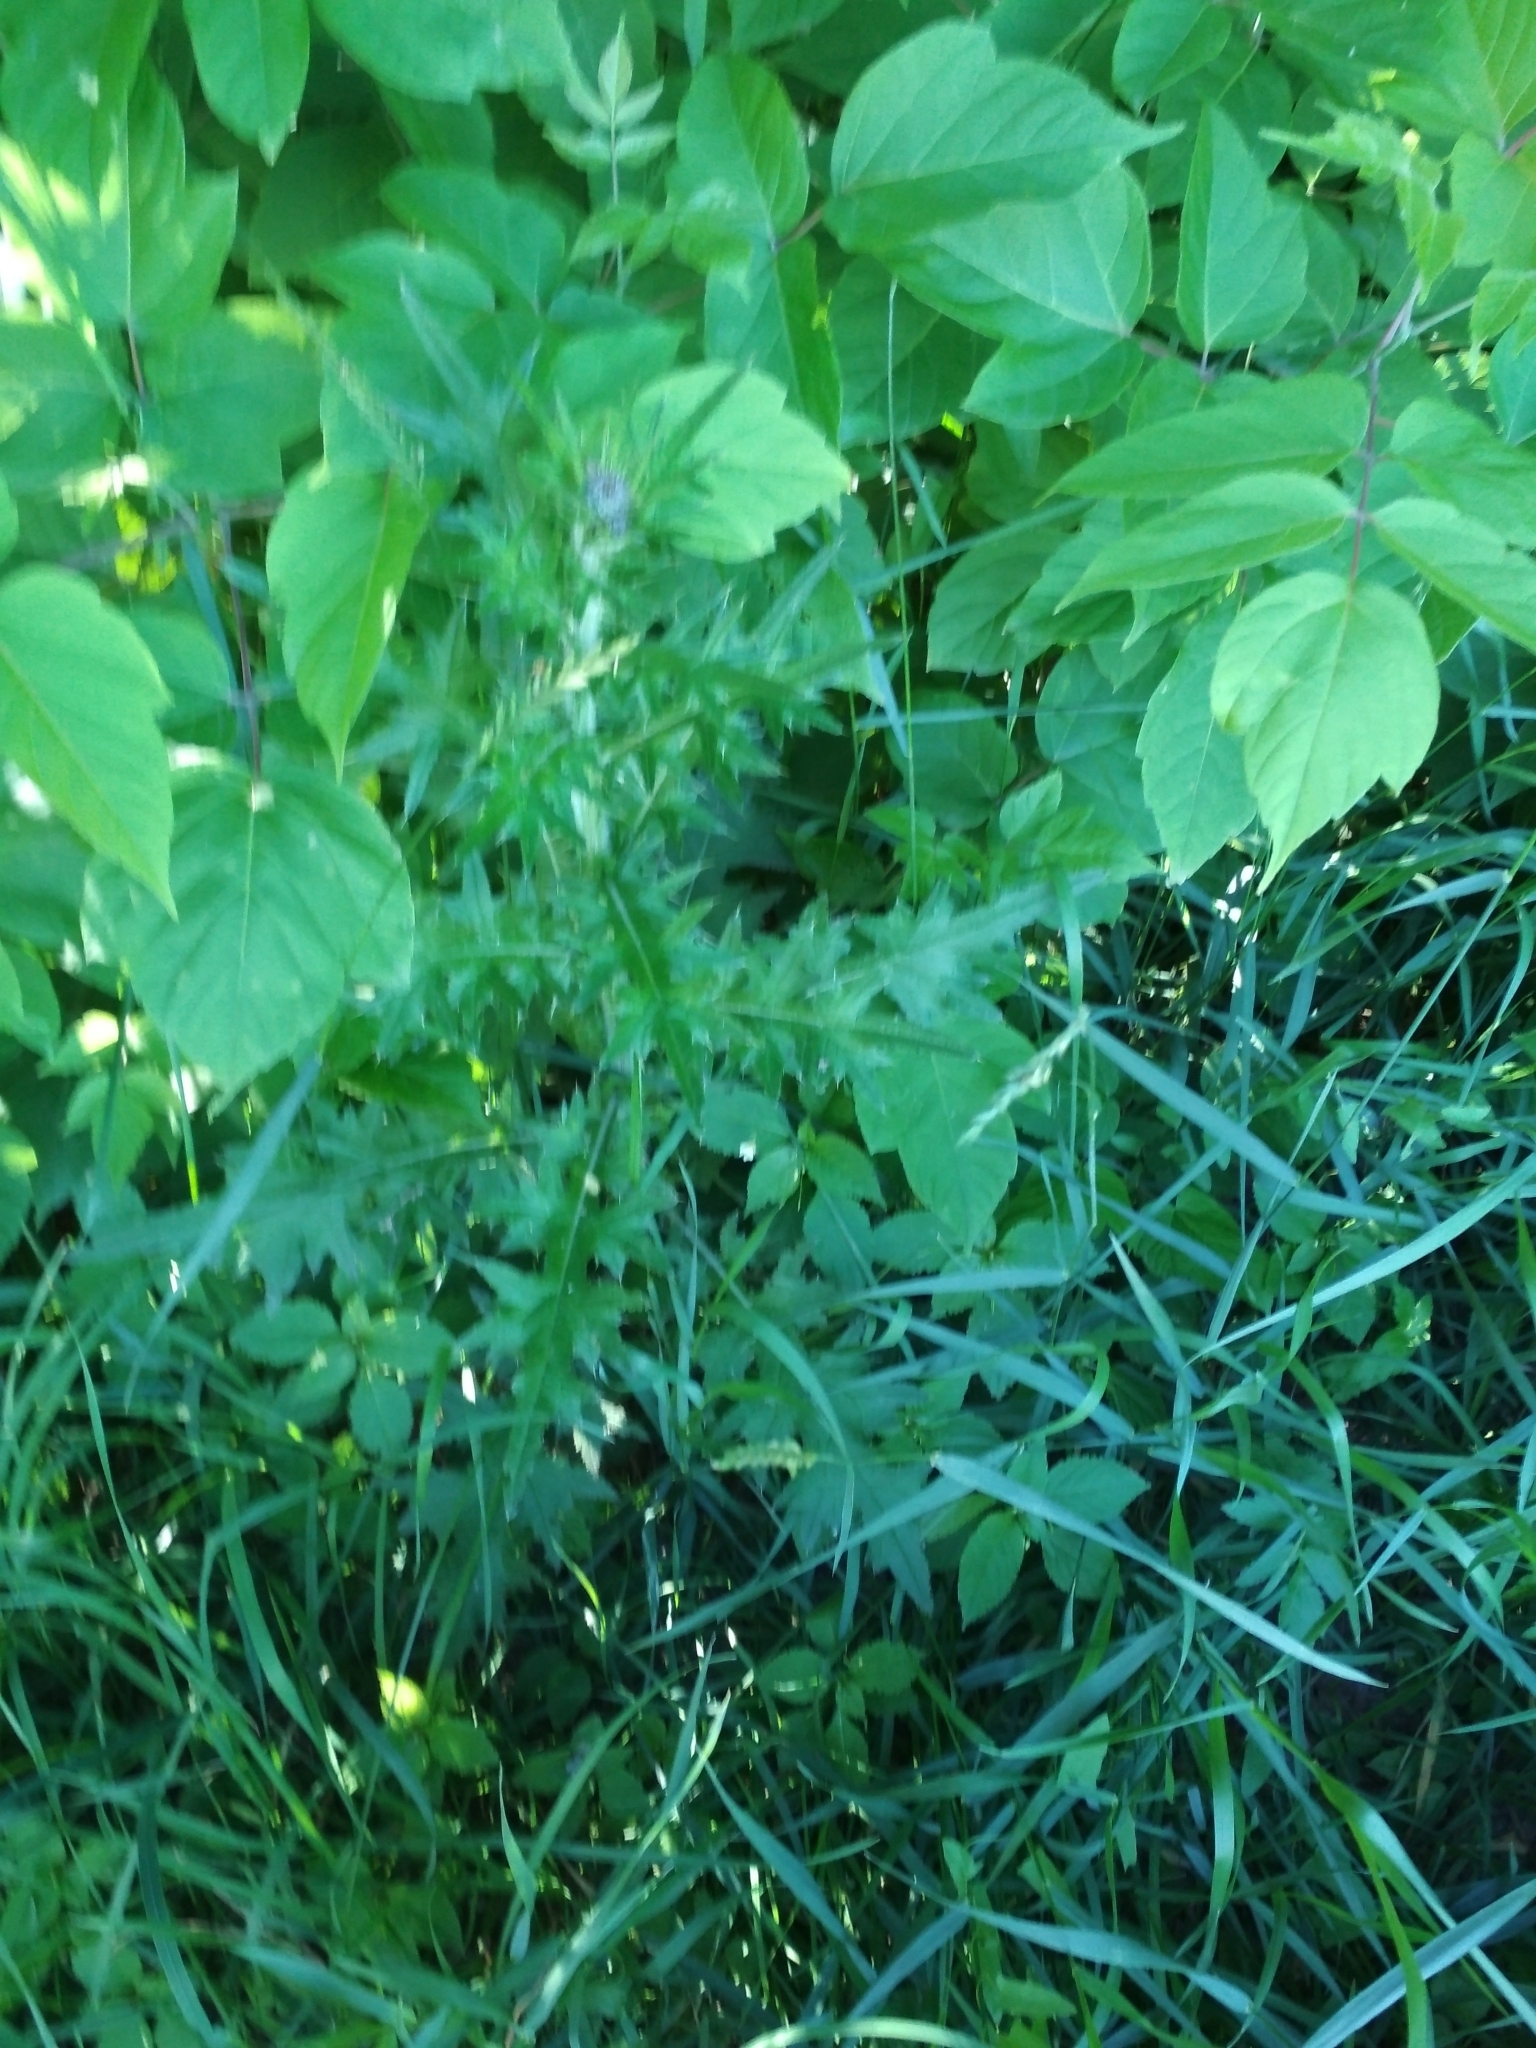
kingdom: Plantae
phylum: Tracheophyta
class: Magnoliopsida
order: Asterales
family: Asteraceae
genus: Cirsium
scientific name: Cirsium vulgare
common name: Bull thistle
